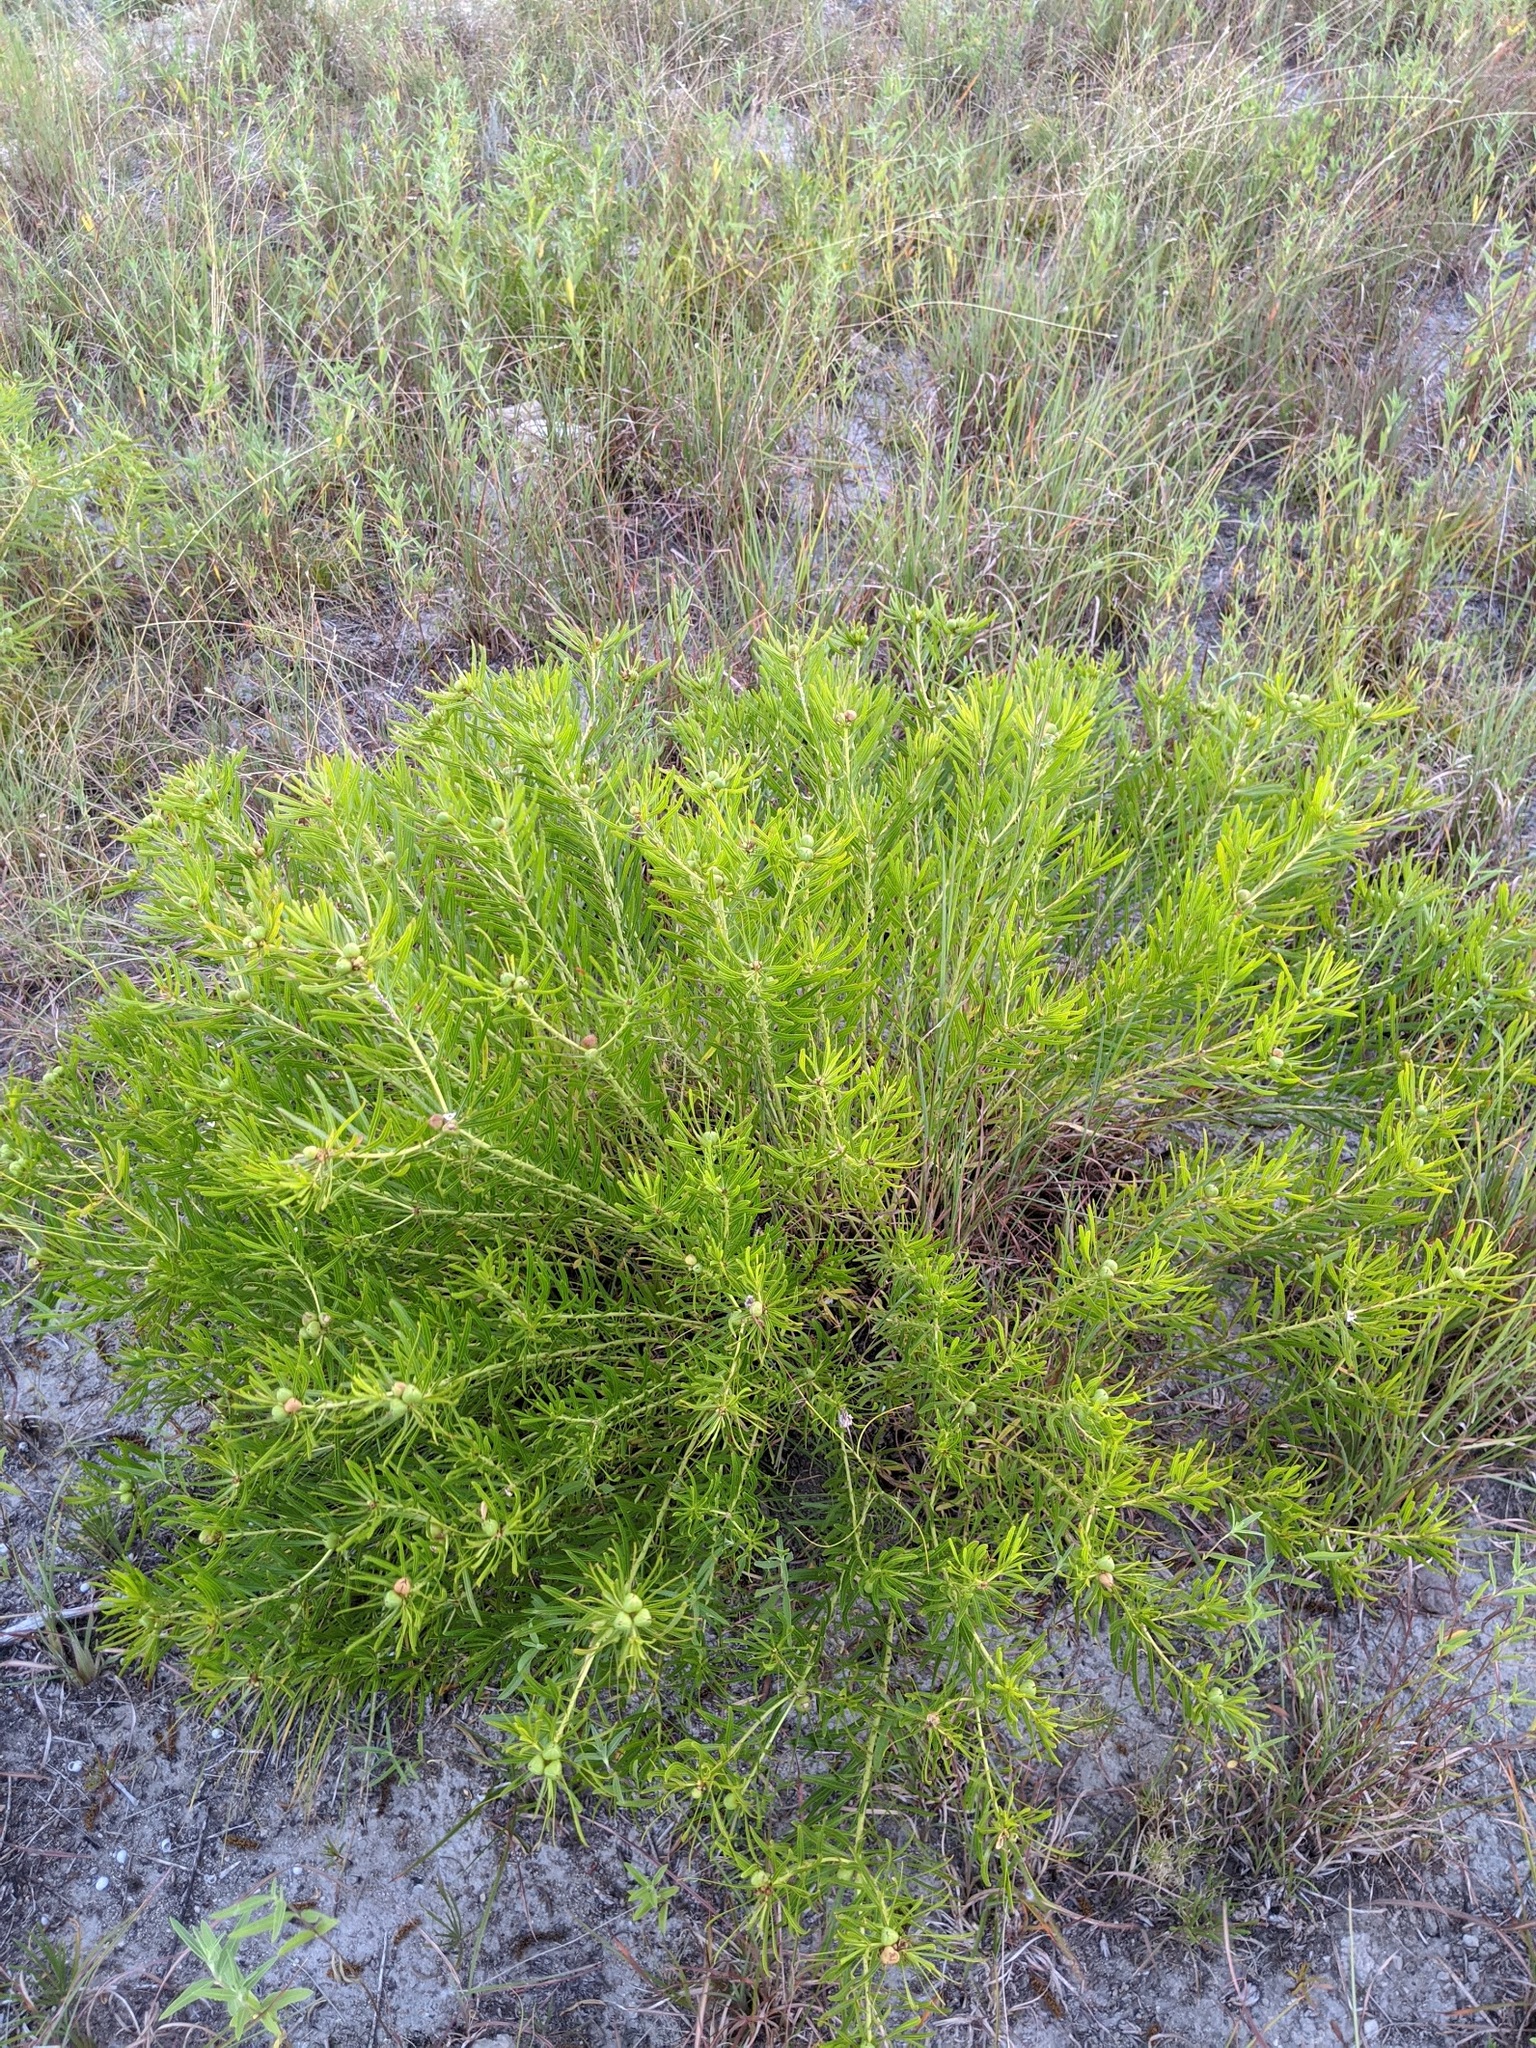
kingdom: Plantae
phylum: Tracheophyta
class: Magnoliopsida
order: Malpighiales
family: Euphorbiaceae
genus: Stillingia
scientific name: Stillingia texana
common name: Texas stillingia
